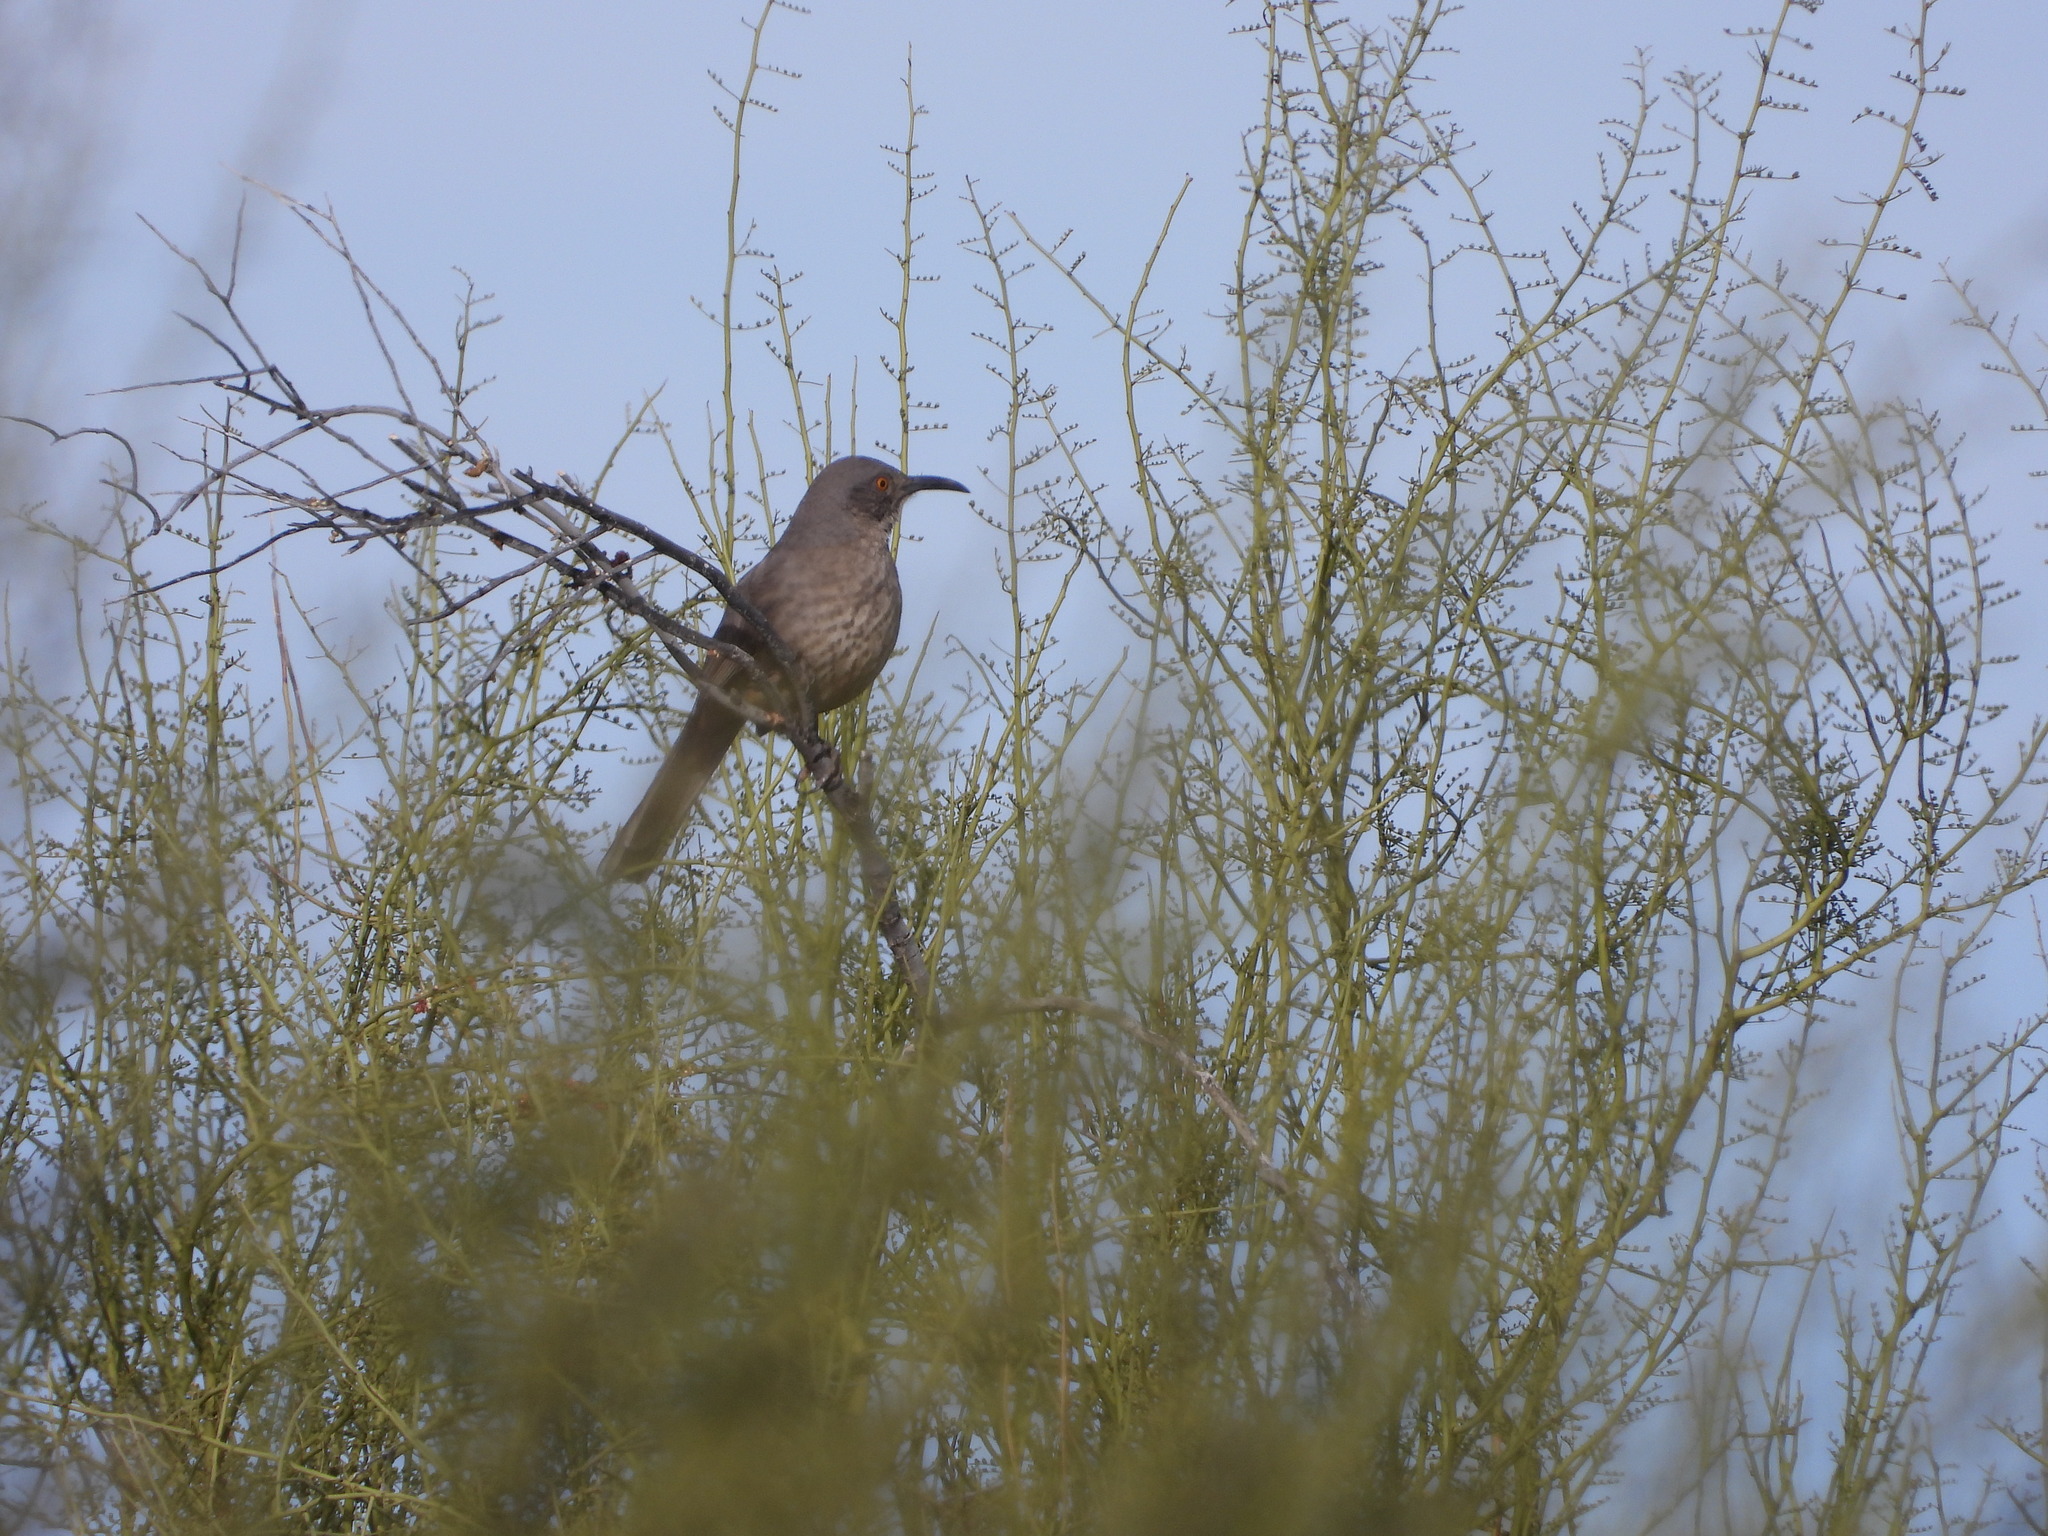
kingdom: Animalia
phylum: Chordata
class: Aves
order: Passeriformes
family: Mimidae
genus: Toxostoma
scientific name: Toxostoma curvirostre
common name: Curve-billed thrasher
